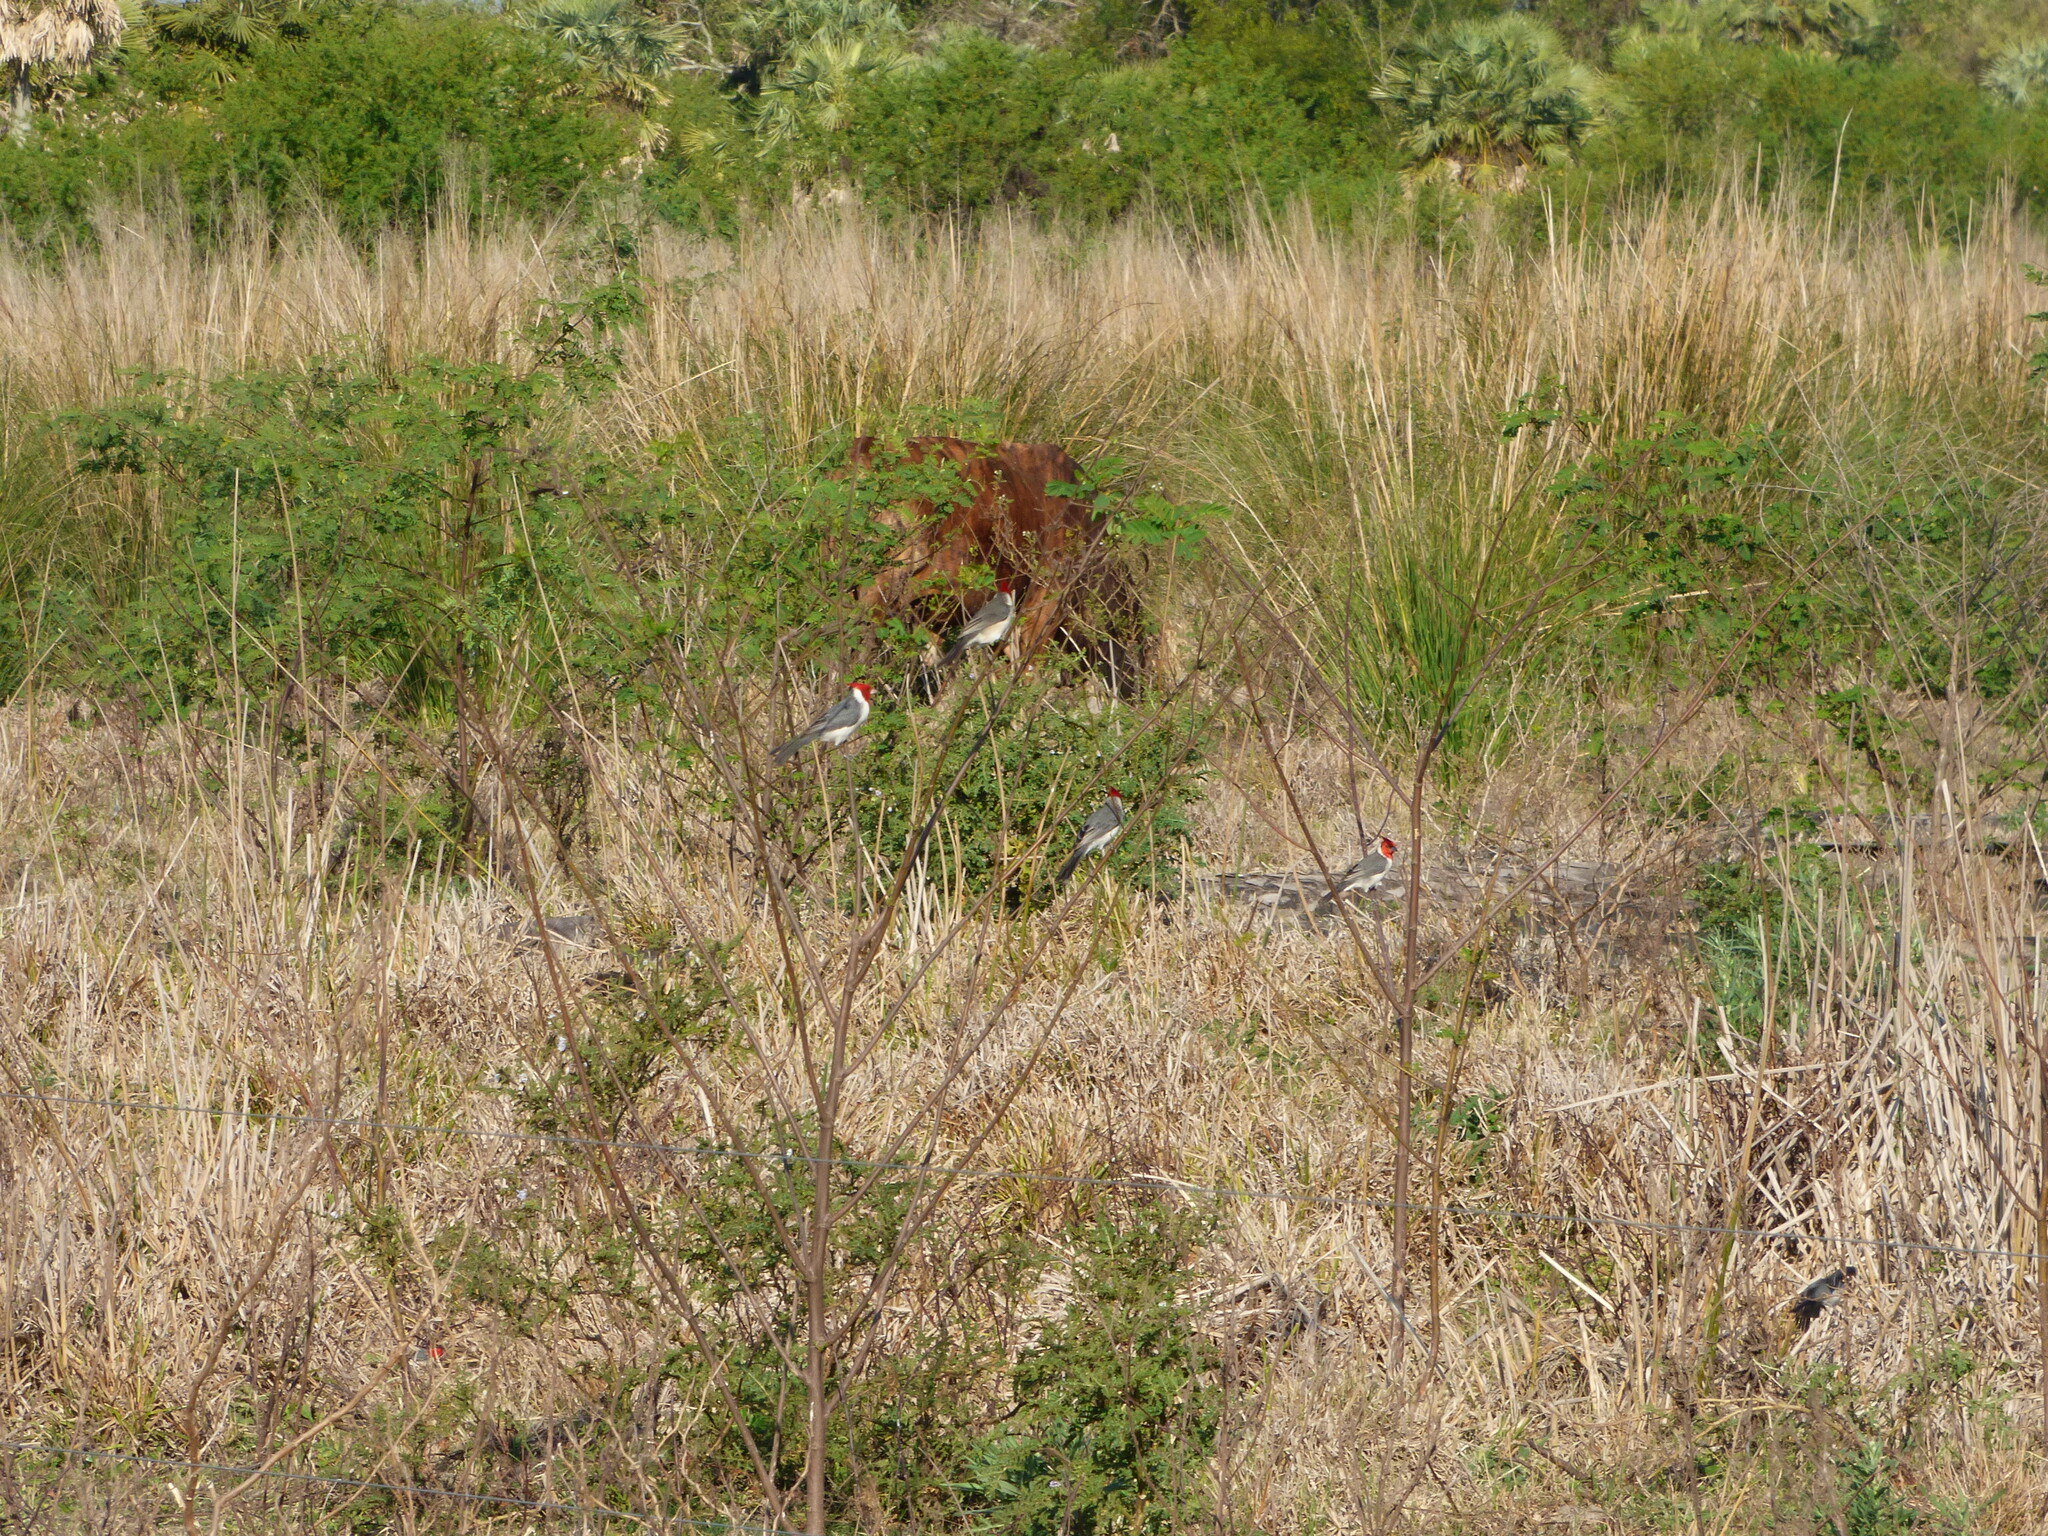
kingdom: Animalia
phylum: Chordata
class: Aves
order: Passeriformes
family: Thraupidae
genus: Paroaria
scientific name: Paroaria coronata
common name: Red-crested cardinal
